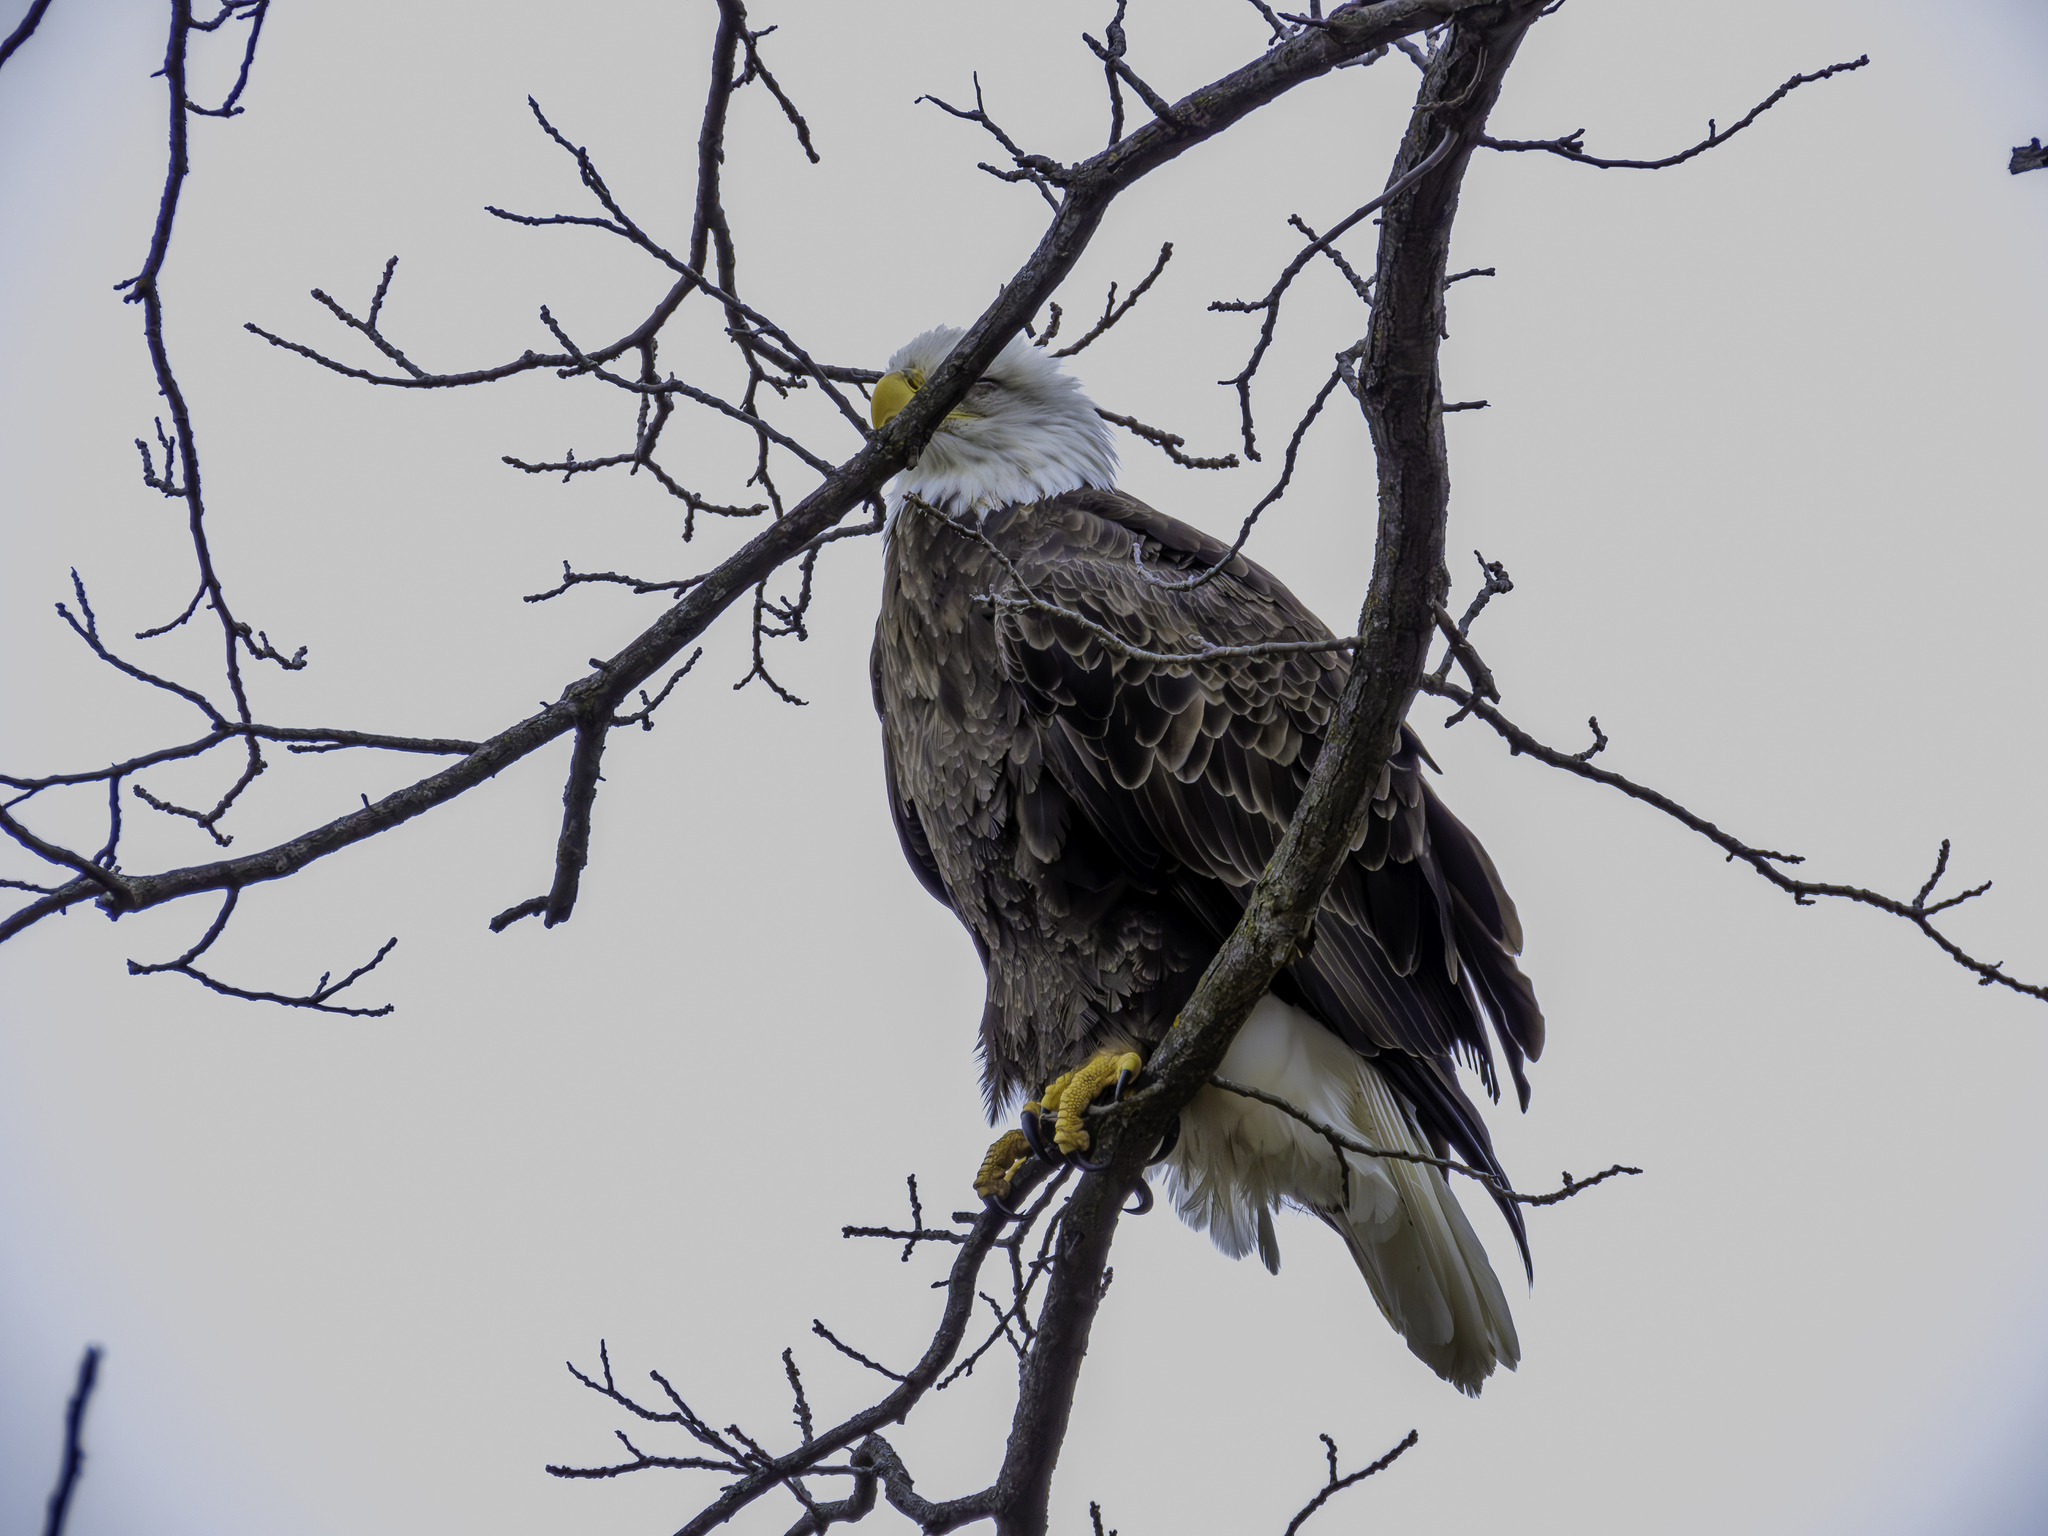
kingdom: Animalia
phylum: Chordata
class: Aves
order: Accipitriformes
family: Accipitridae
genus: Haliaeetus
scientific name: Haliaeetus leucocephalus
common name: Bald eagle
